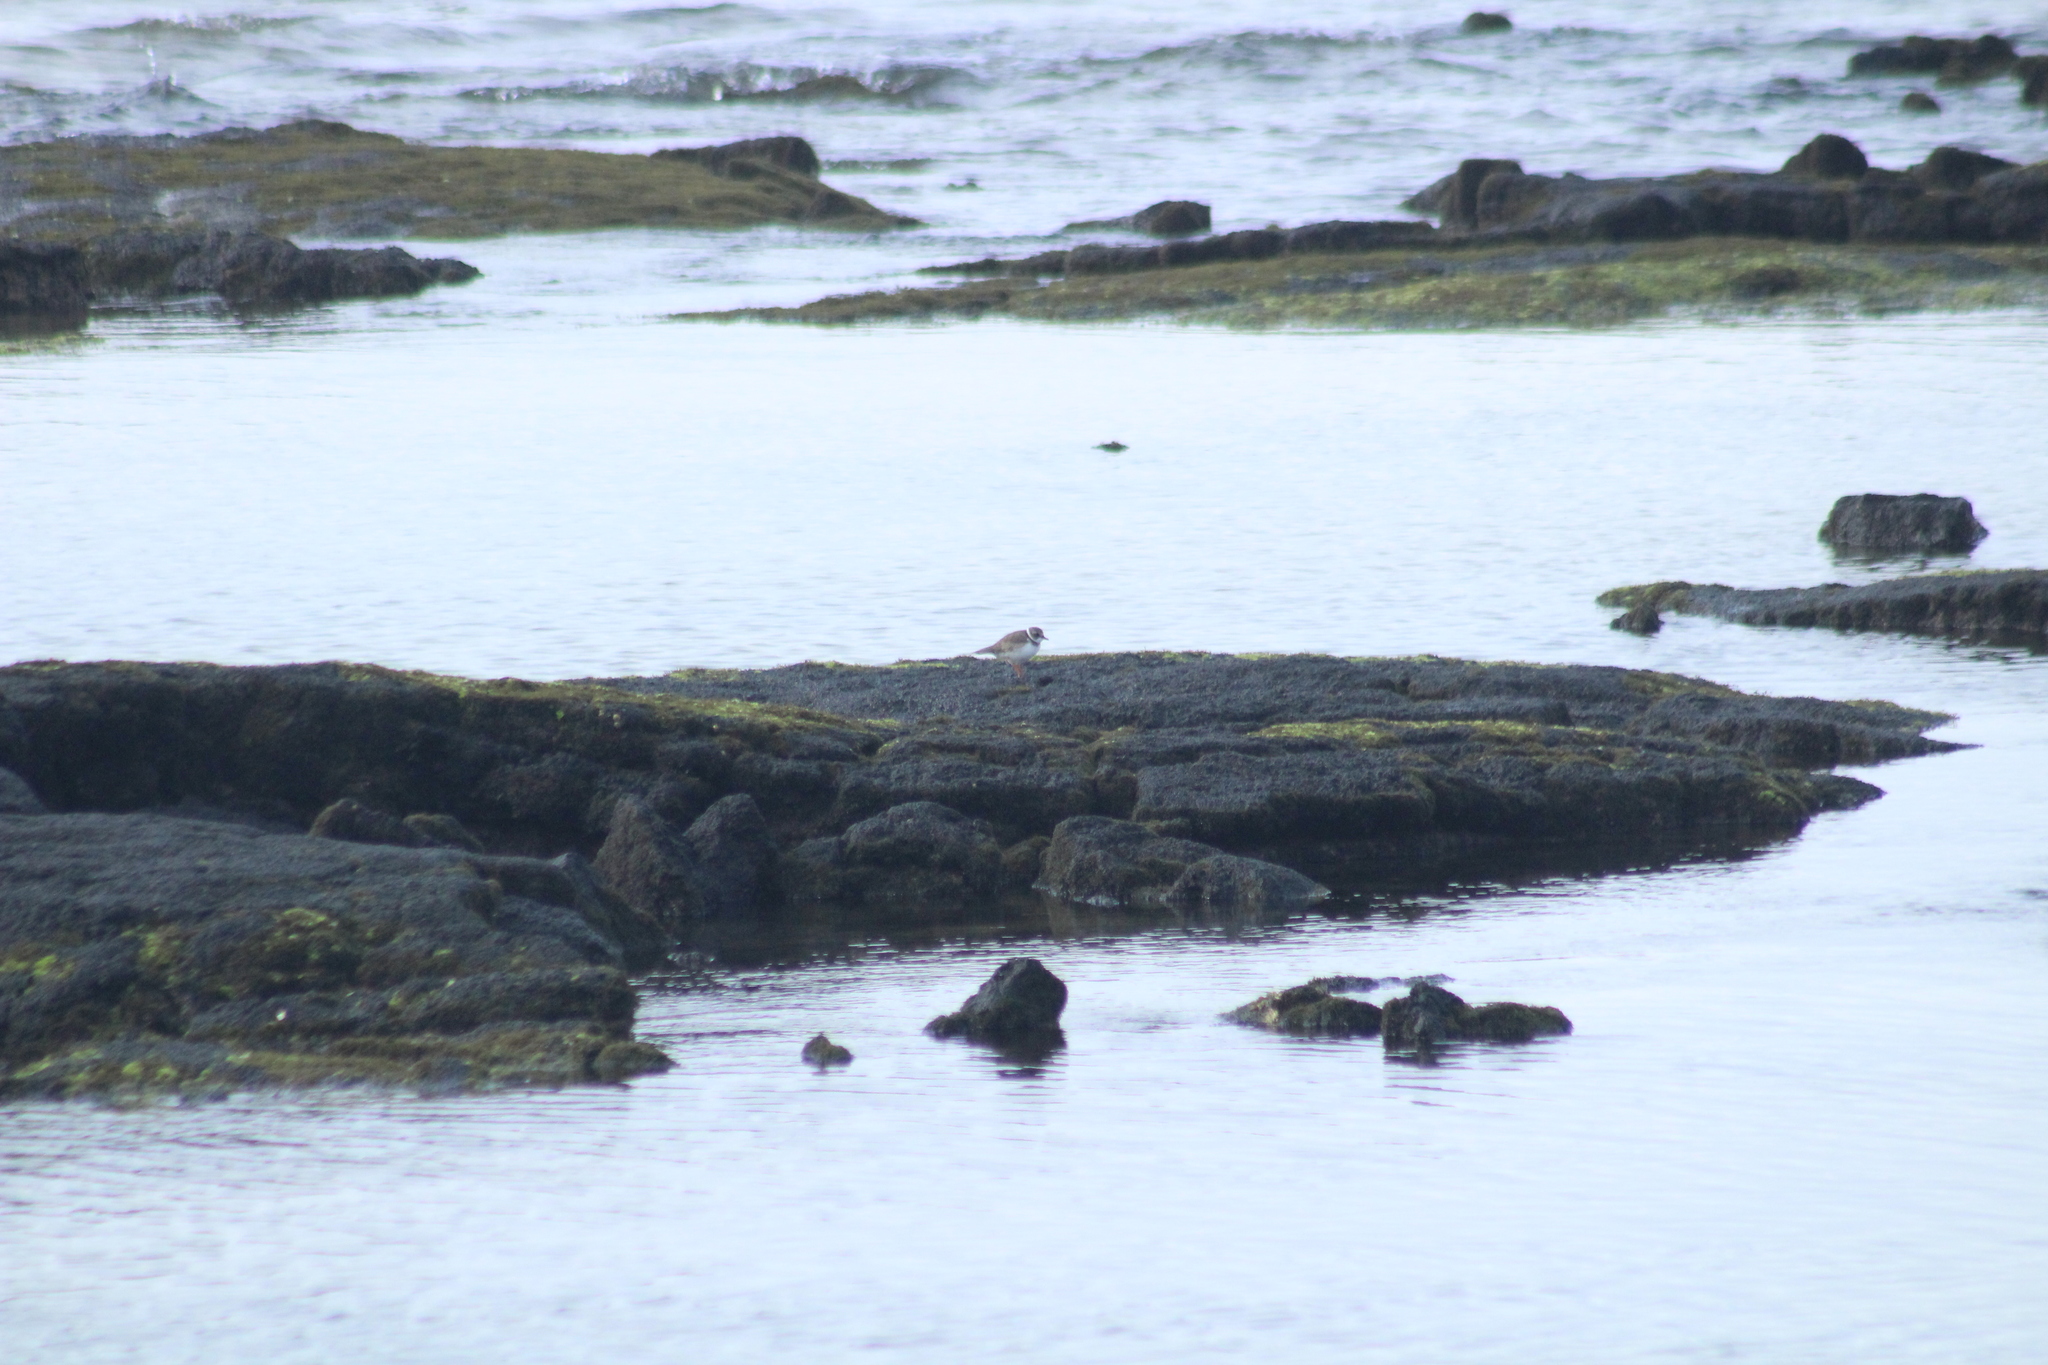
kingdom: Animalia
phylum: Chordata
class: Aves
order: Charadriiformes
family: Charadriidae
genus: Charadrius
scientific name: Charadrius semipalmatus
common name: Semipalmated plover
